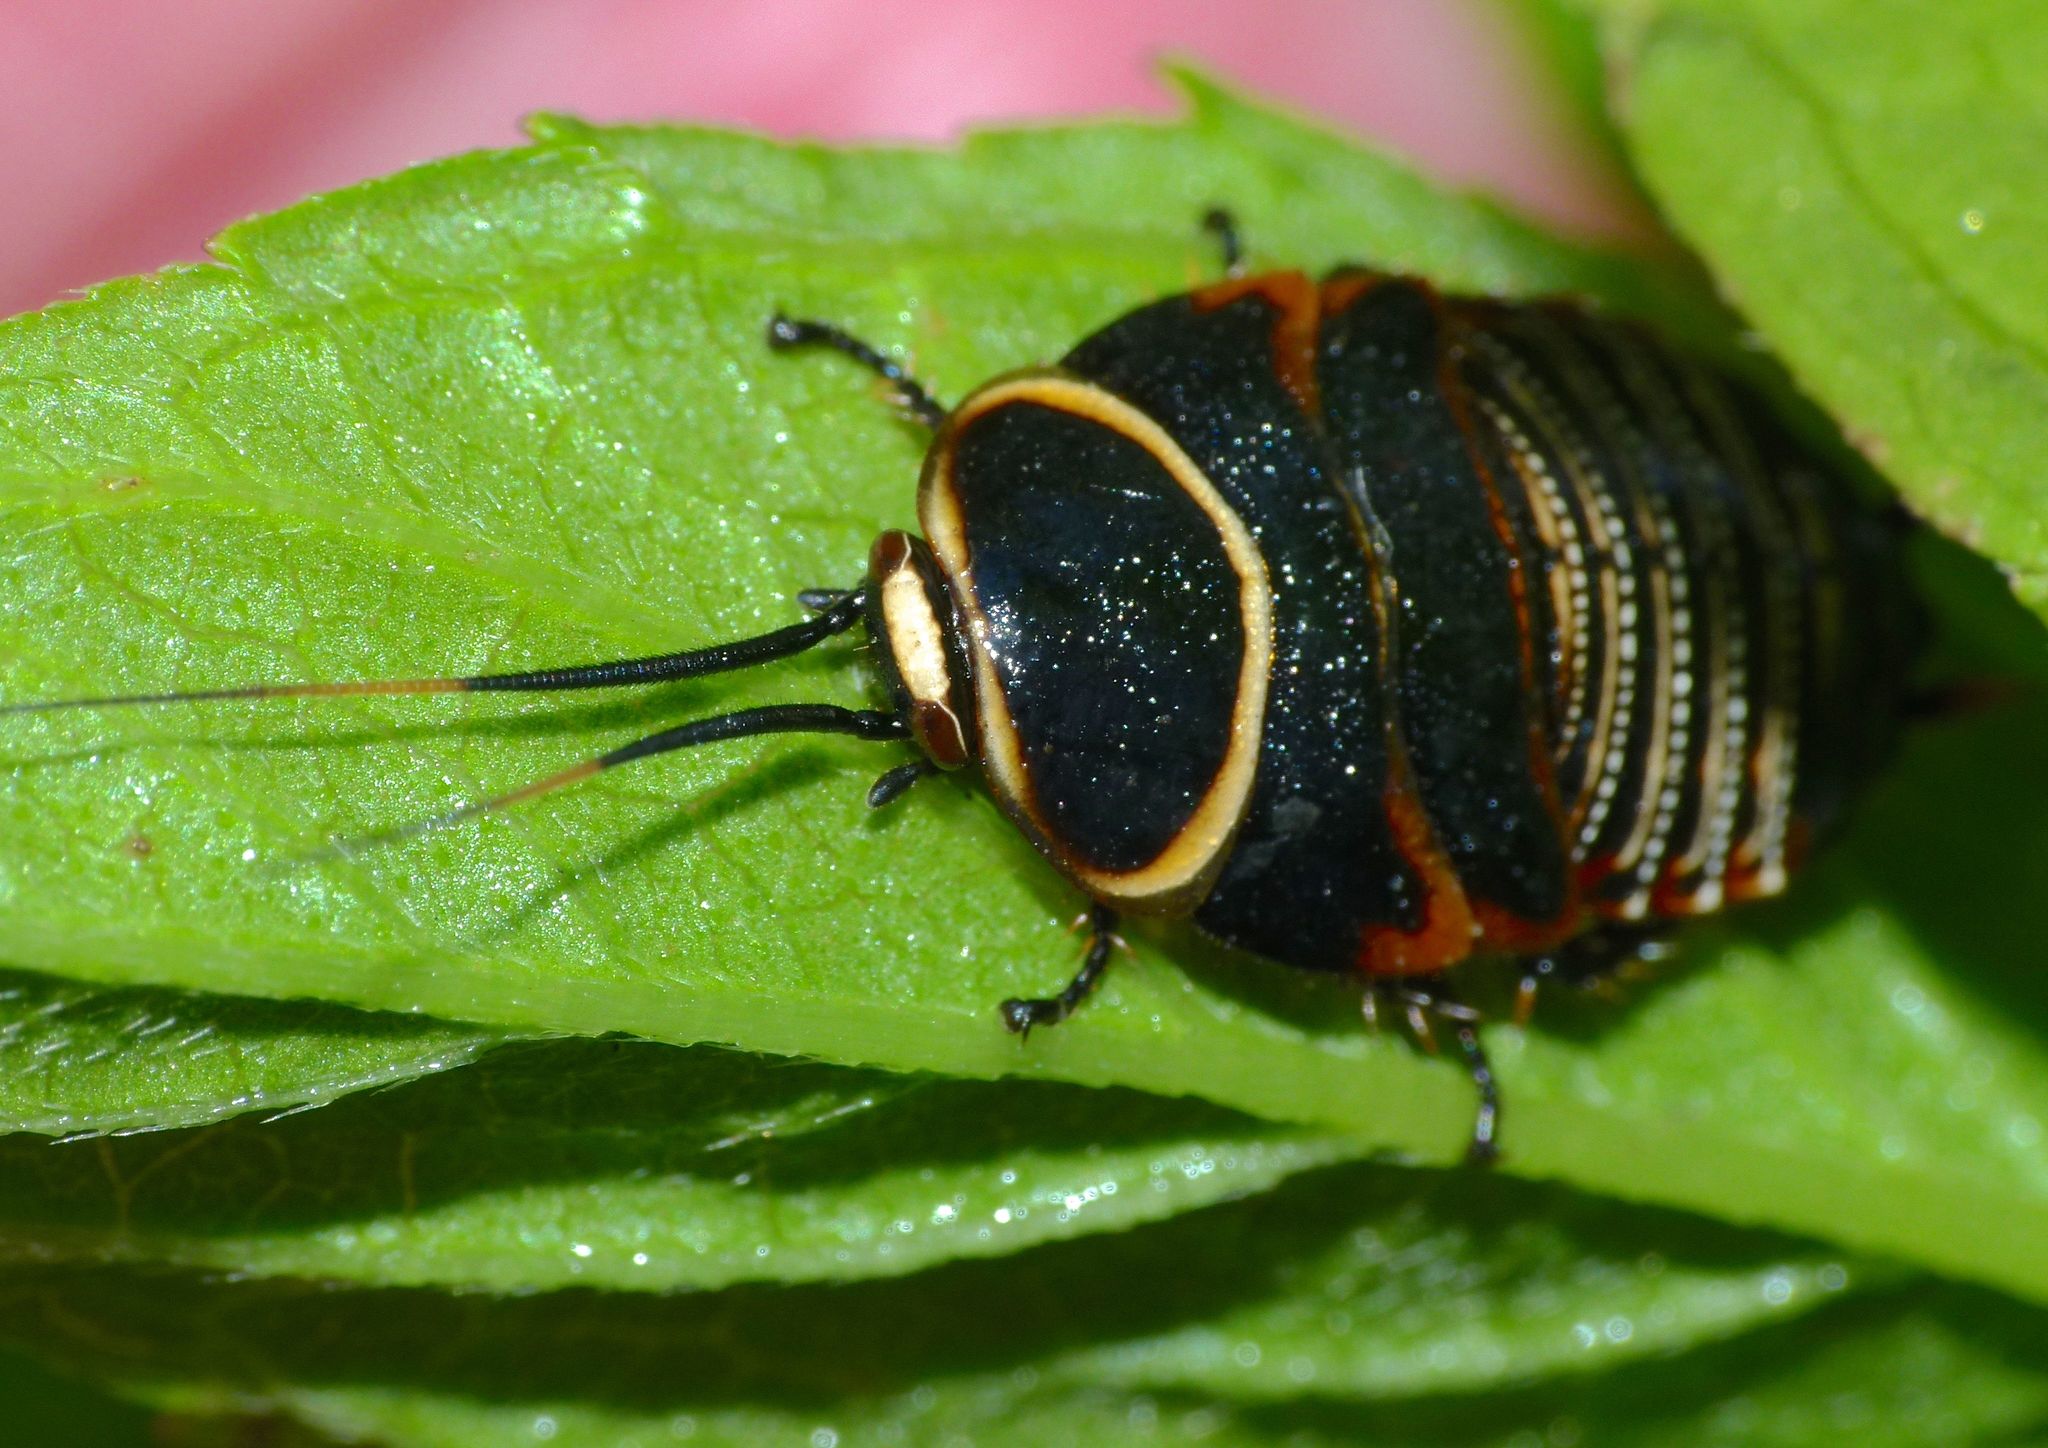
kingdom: Animalia
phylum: Arthropoda
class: Insecta
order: Blattodea
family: Ectobiidae
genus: Ellipsidion
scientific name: Ellipsidion australe
